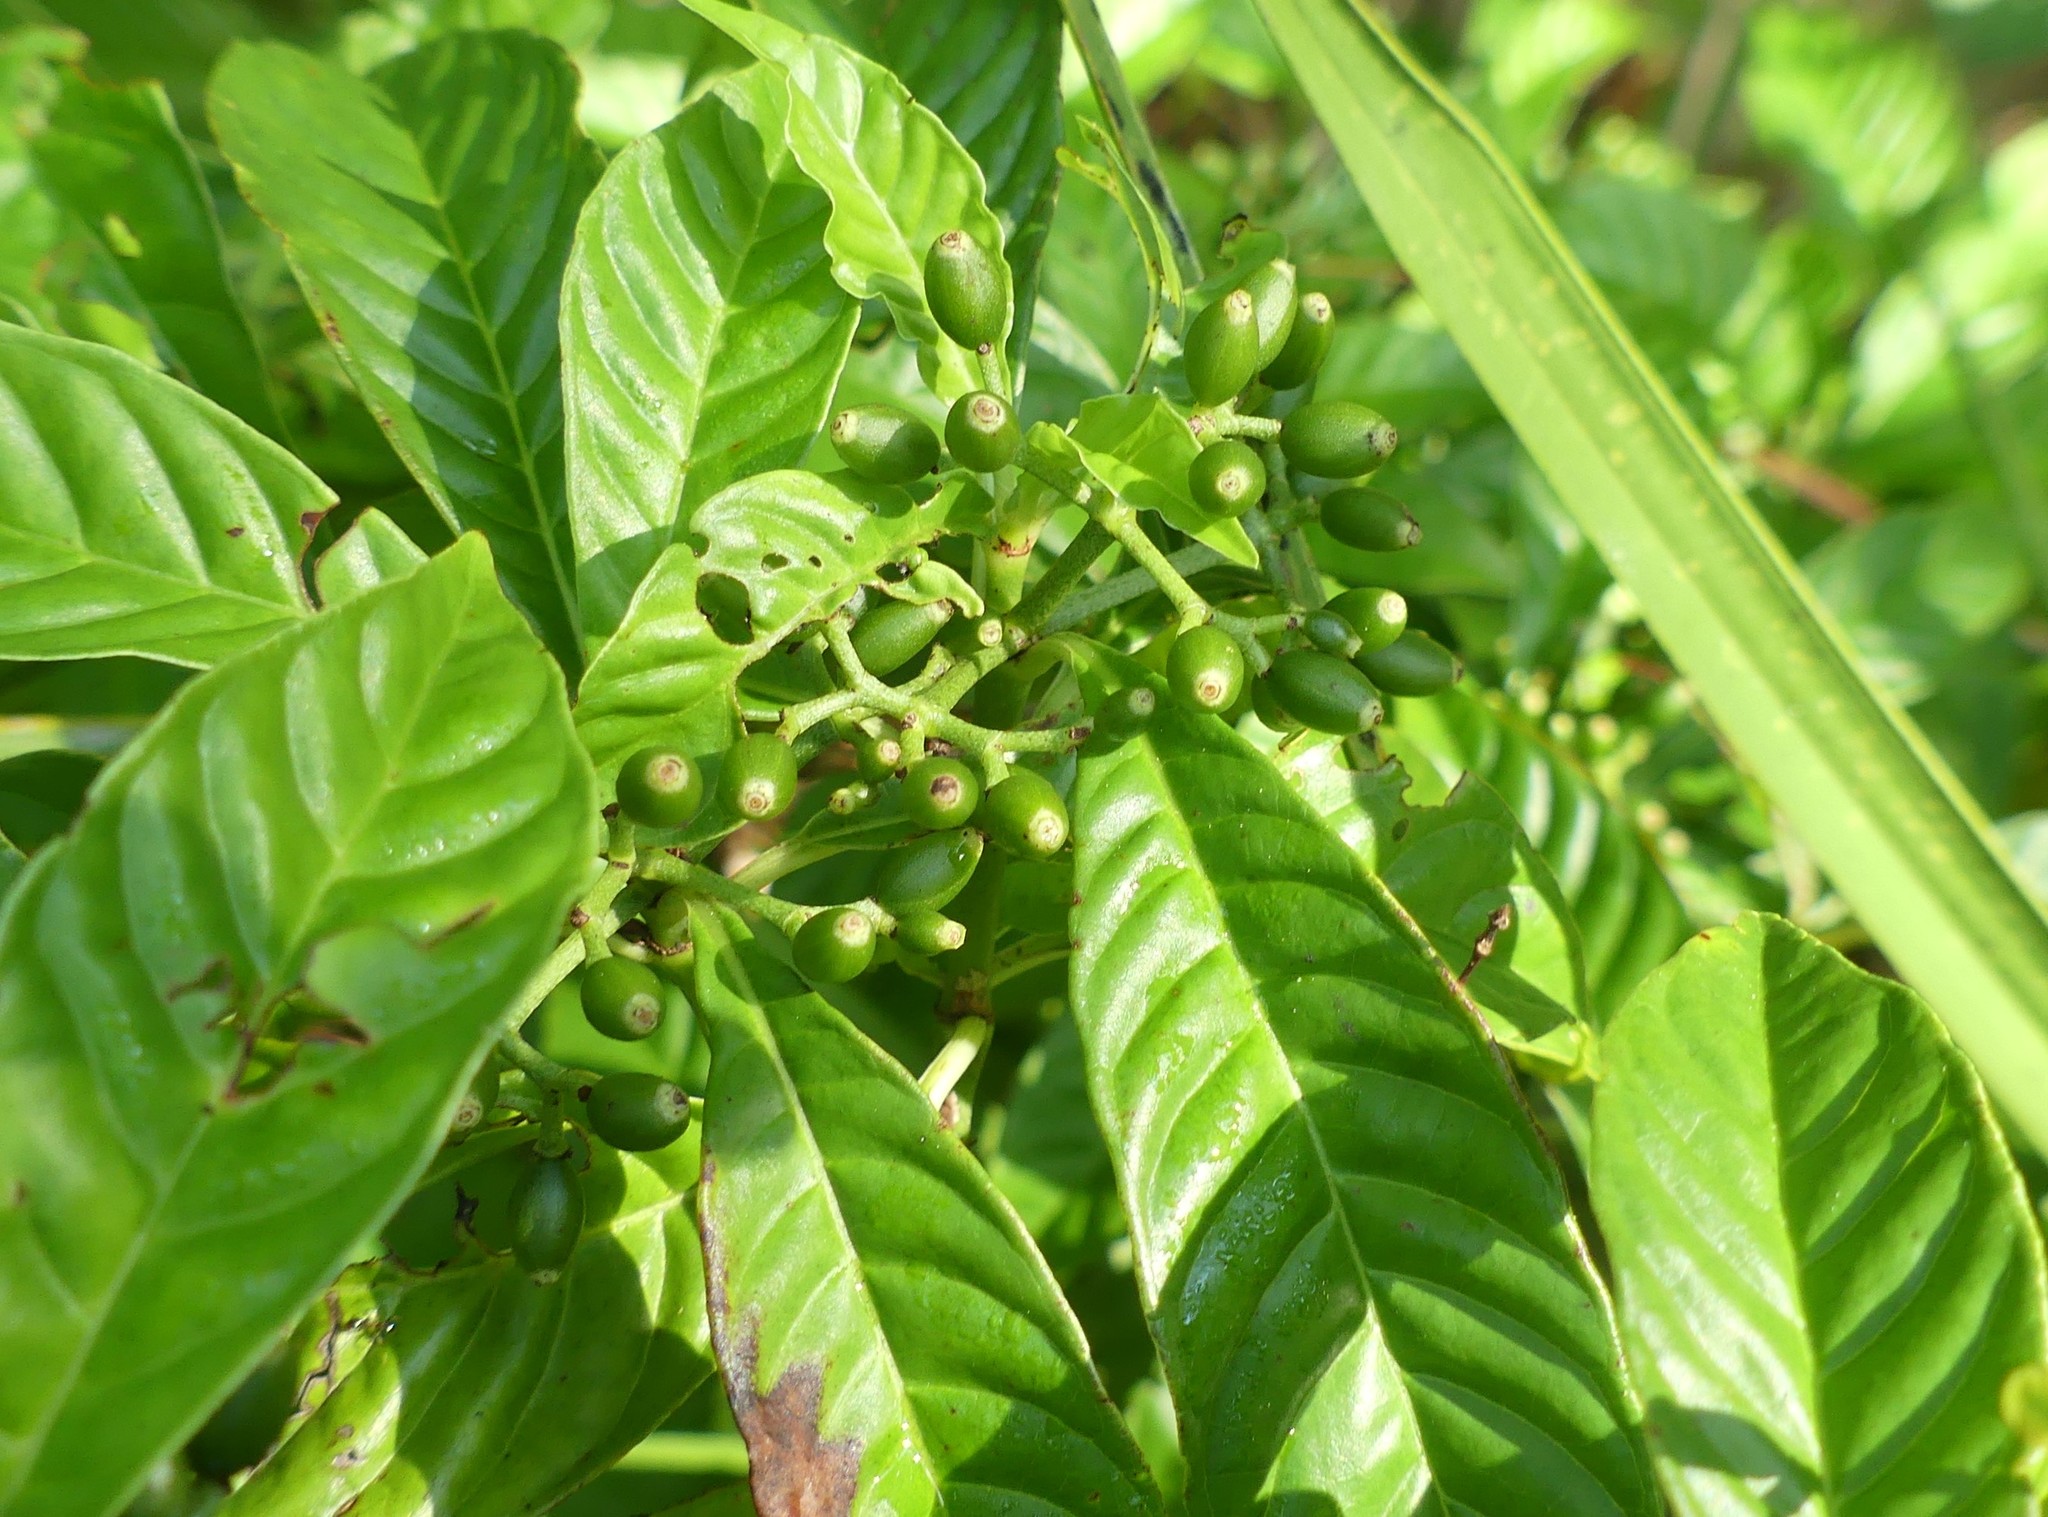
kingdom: Plantae
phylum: Tracheophyta
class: Magnoliopsida
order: Gentianales
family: Rubiaceae
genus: Psychotria
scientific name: Psychotria nervosa
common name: Bastard cankerberry
